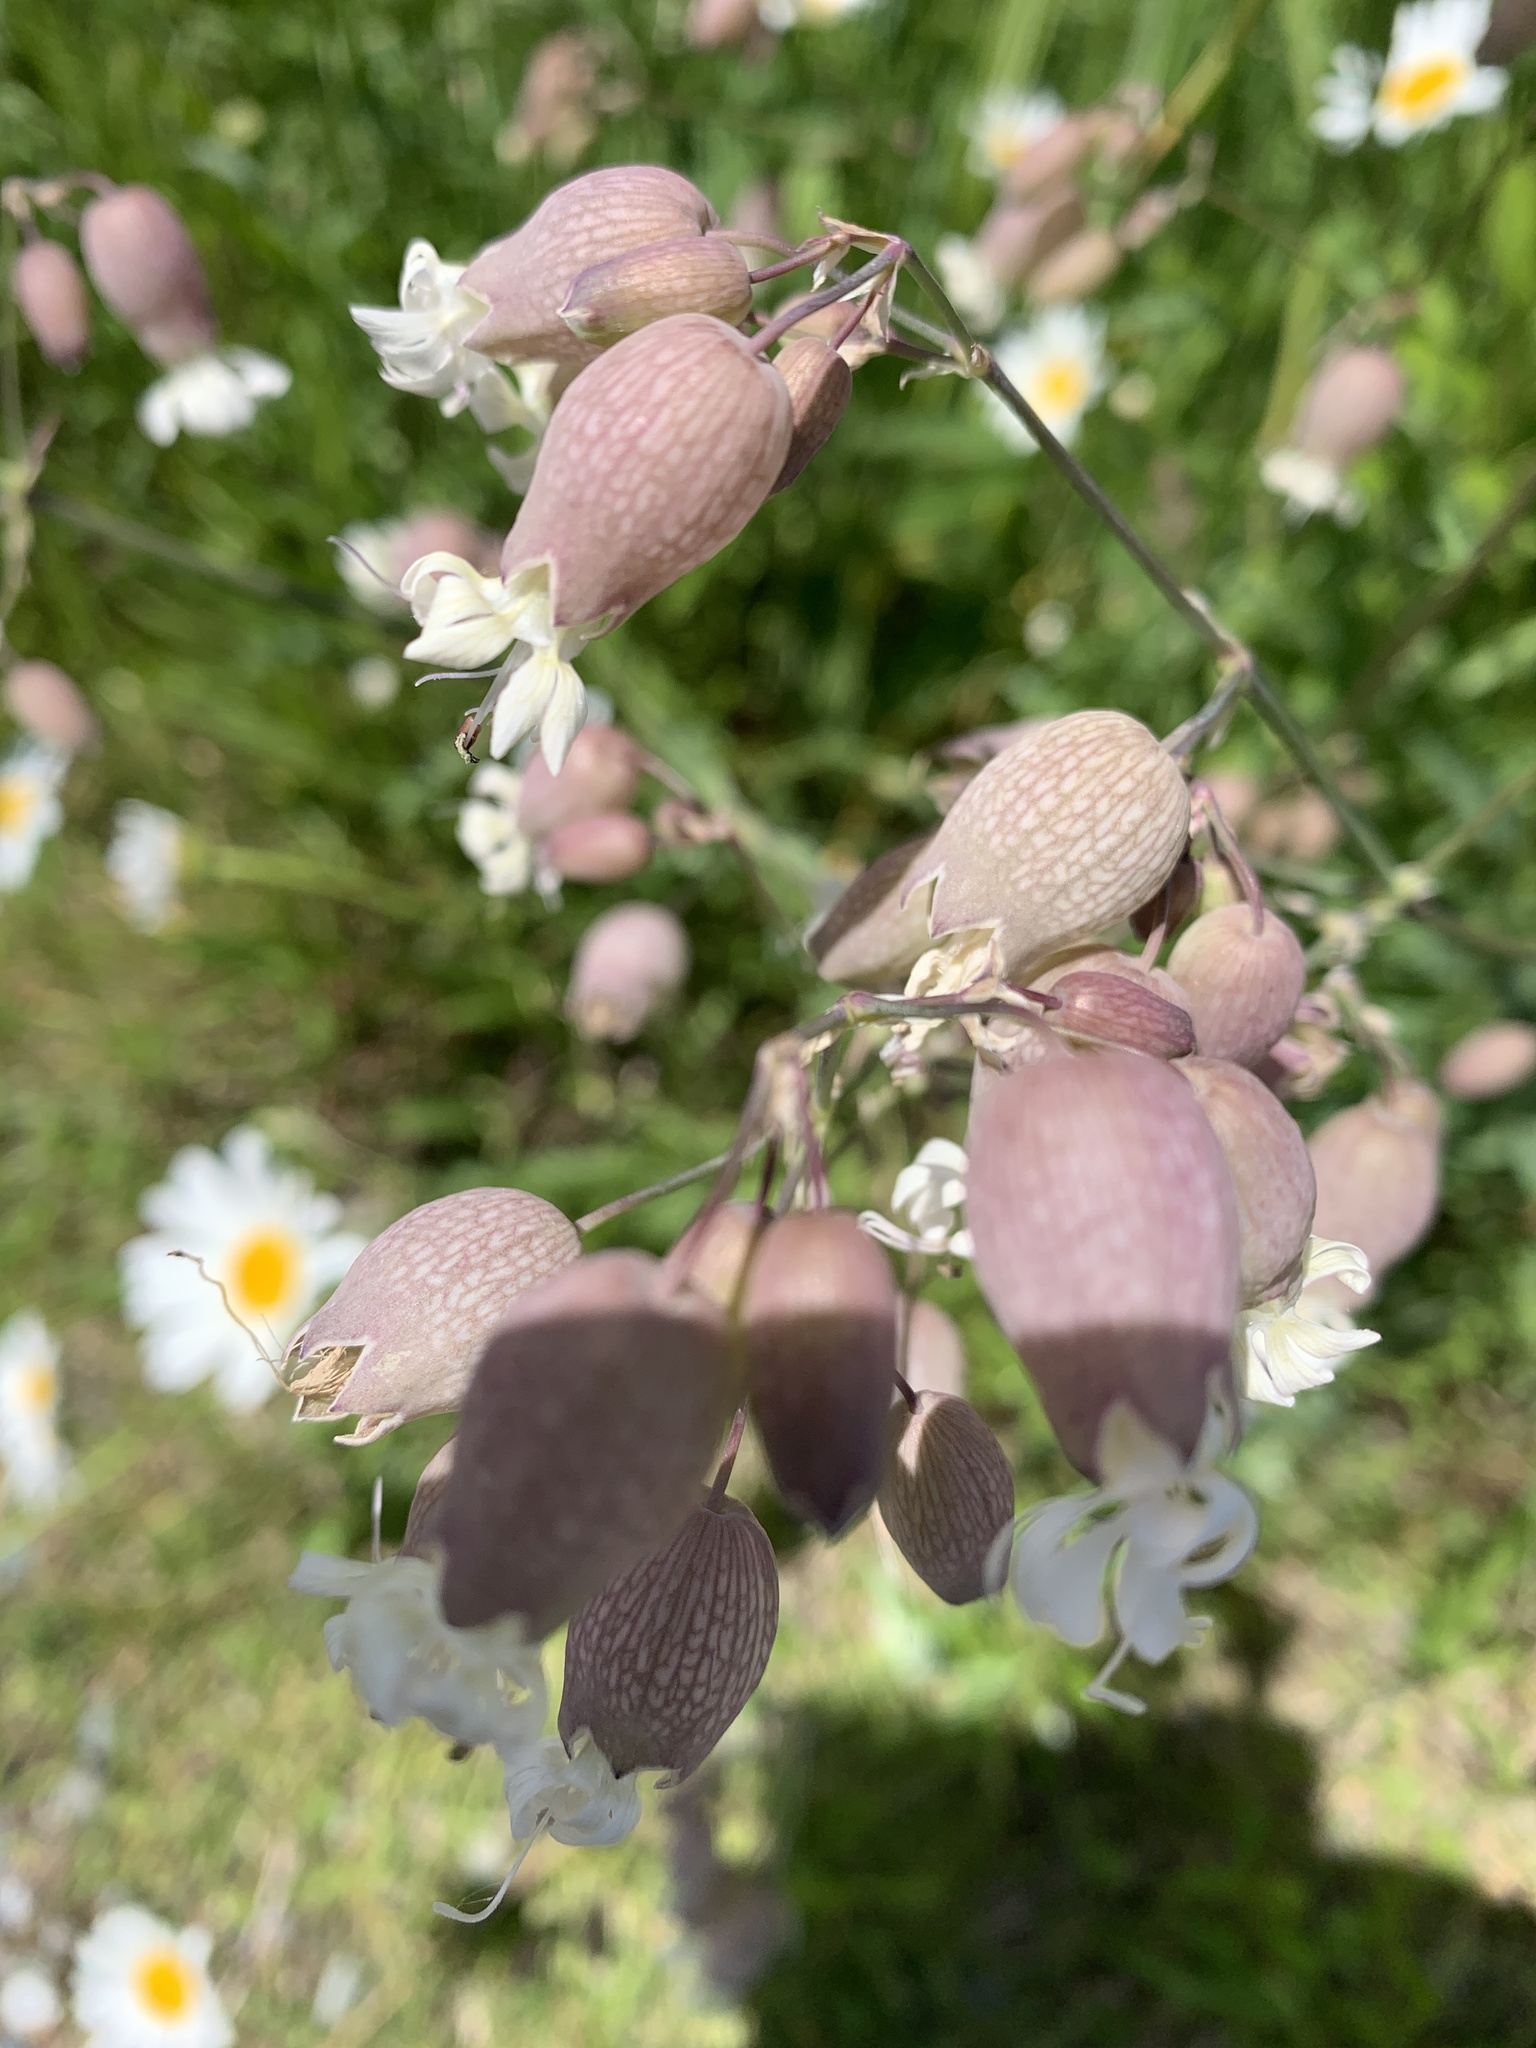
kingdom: Plantae
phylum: Tracheophyta
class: Magnoliopsida
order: Caryophyllales
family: Caryophyllaceae
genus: Silene
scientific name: Silene vulgaris
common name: Bladder campion
